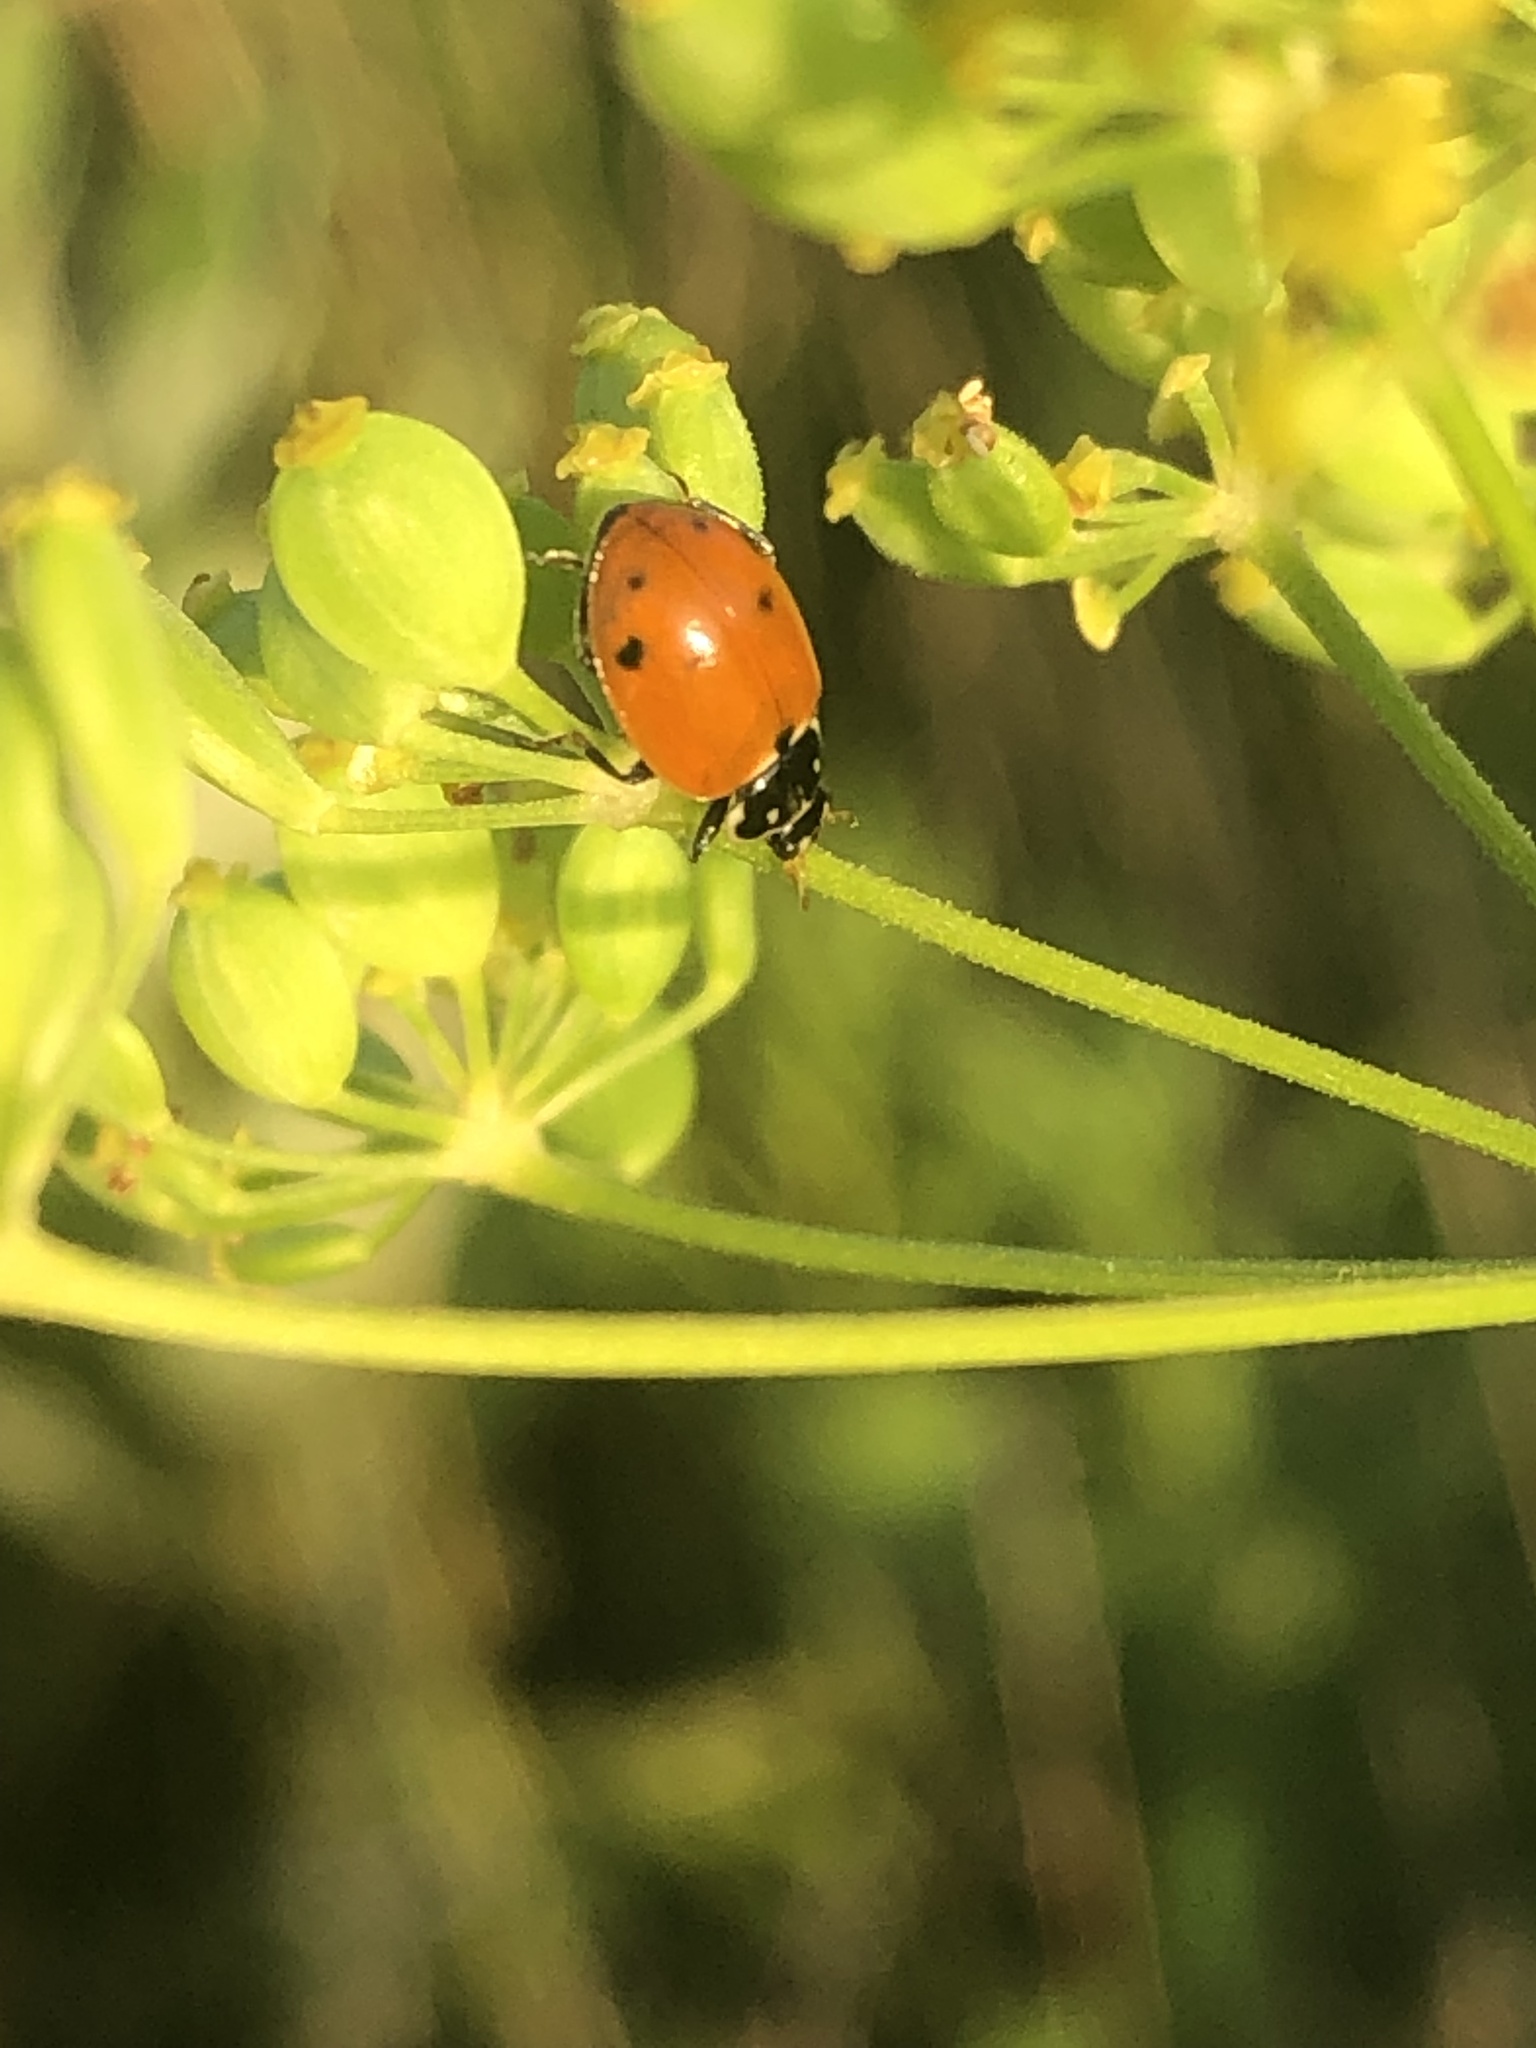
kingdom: Animalia
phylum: Arthropoda
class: Insecta
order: Coleoptera
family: Coccinellidae
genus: Hippodamia
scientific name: Hippodamia variegata
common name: Ladybird beetle
